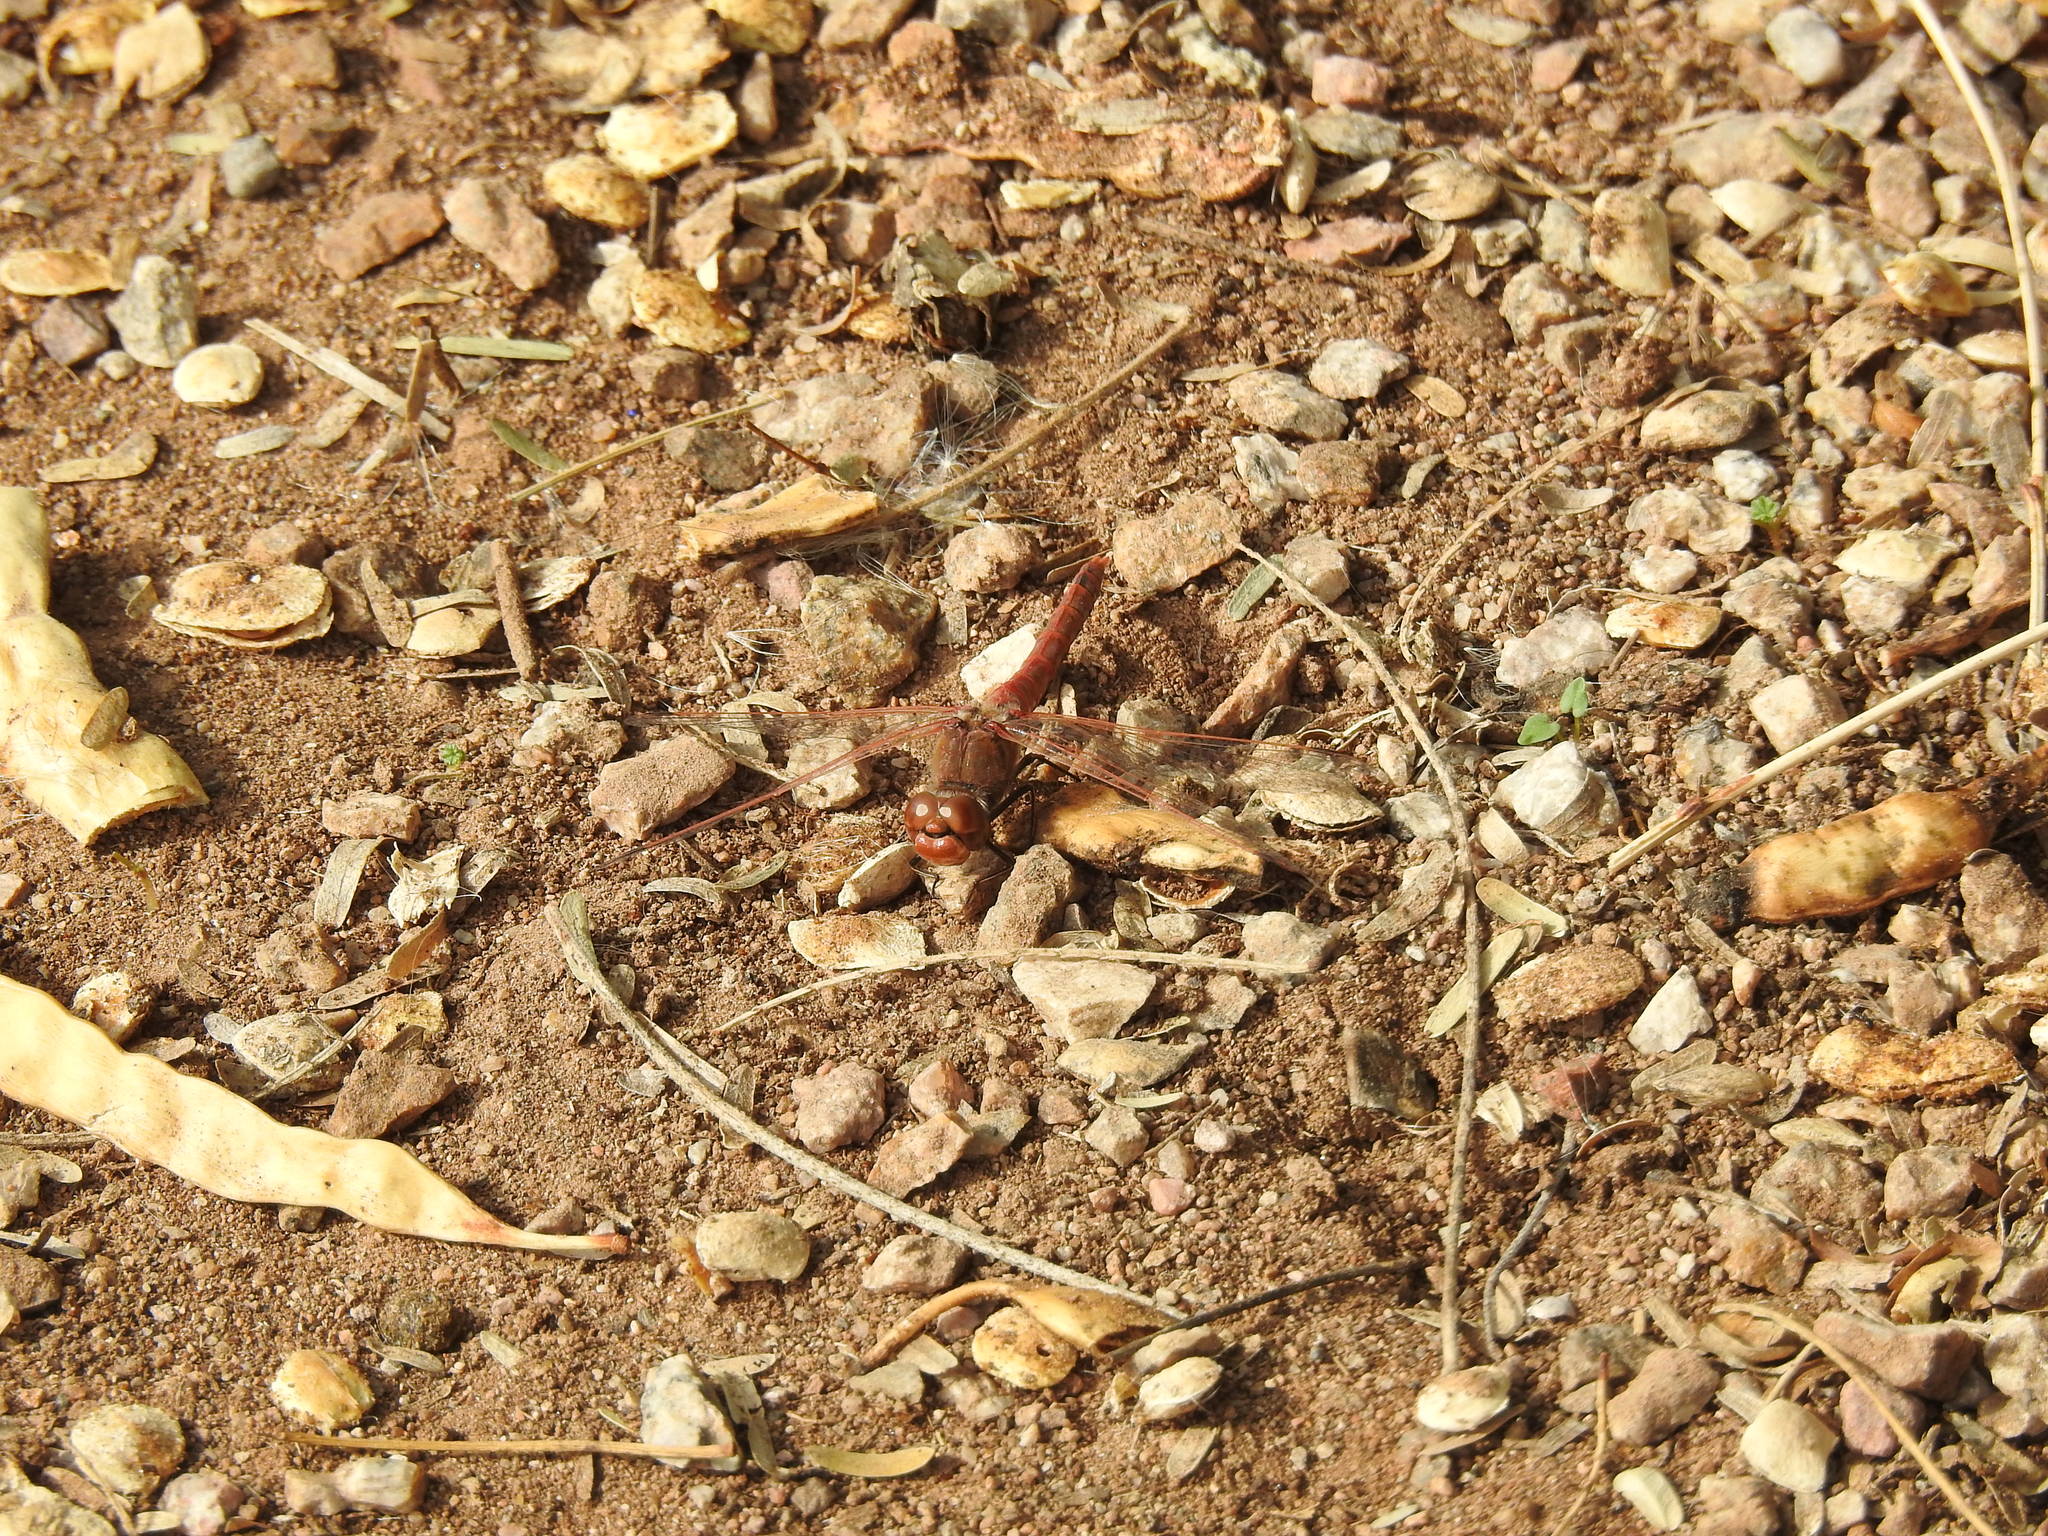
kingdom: Animalia
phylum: Arthropoda
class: Insecta
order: Odonata
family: Libellulidae
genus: Sympetrum
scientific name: Sympetrum corruptum
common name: Variegated meadowhawk
